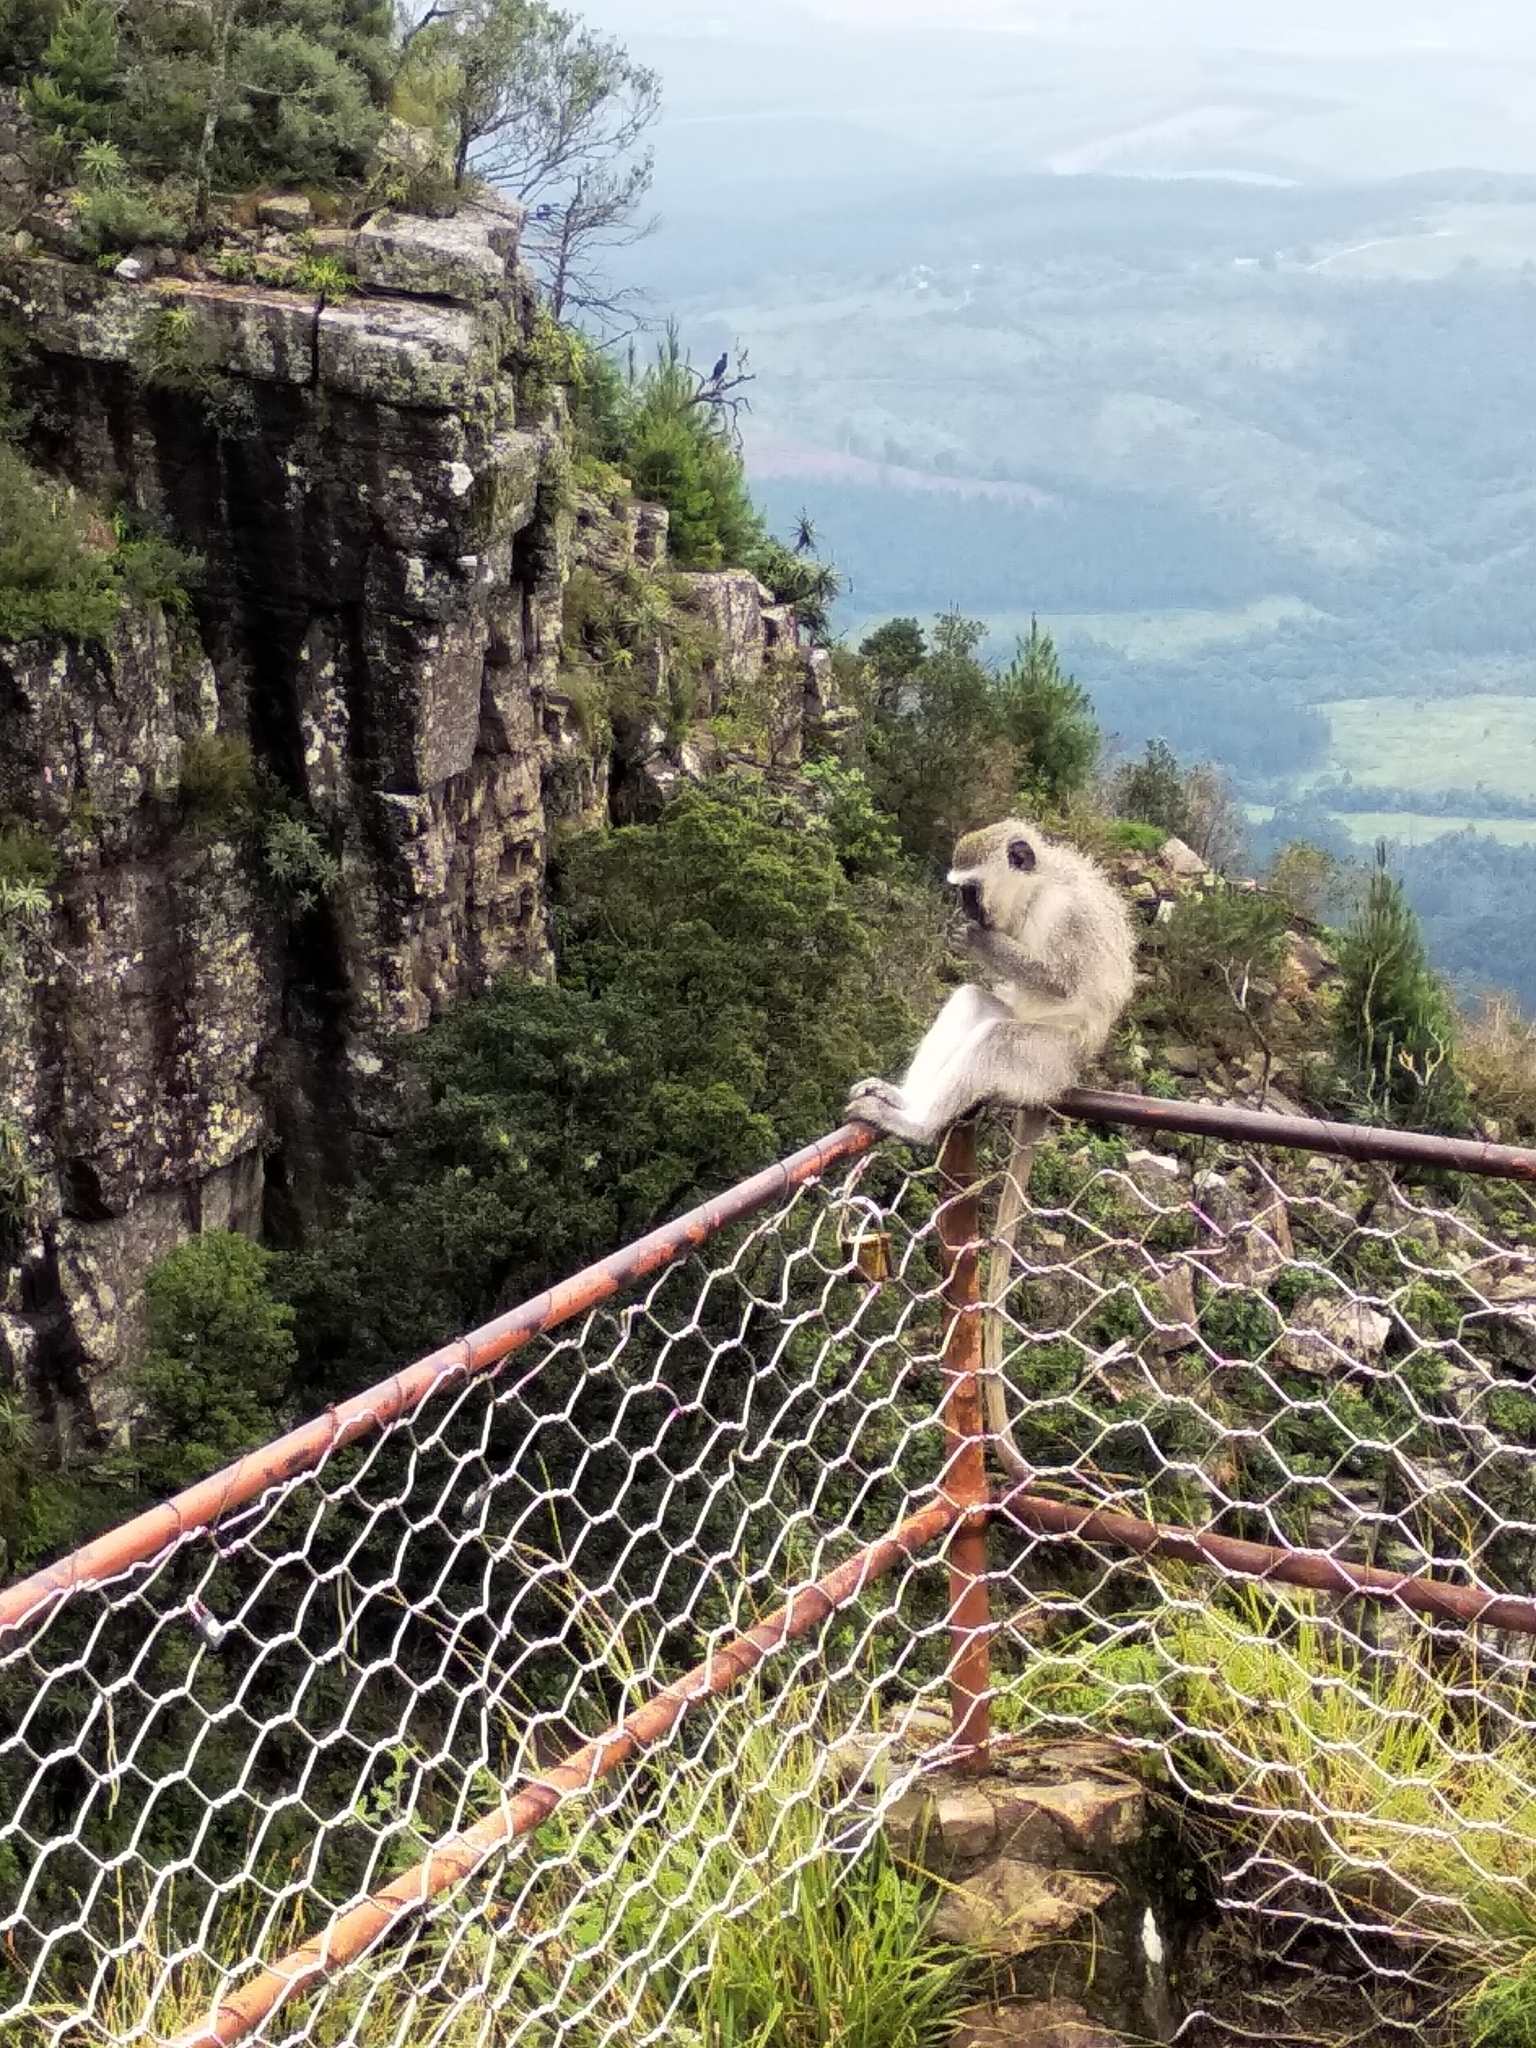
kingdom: Animalia
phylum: Chordata
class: Mammalia
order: Primates
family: Cercopithecidae
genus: Chlorocebus
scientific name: Chlorocebus pygerythrus
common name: Vervet monkey
